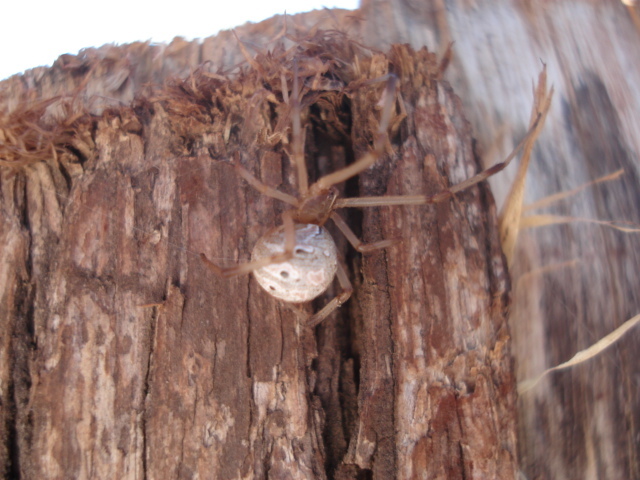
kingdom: Animalia
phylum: Arthropoda
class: Arachnida
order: Araneae
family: Theridiidae
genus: Latrodectus
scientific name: Latrodectus geometricus
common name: Brown widow spider
